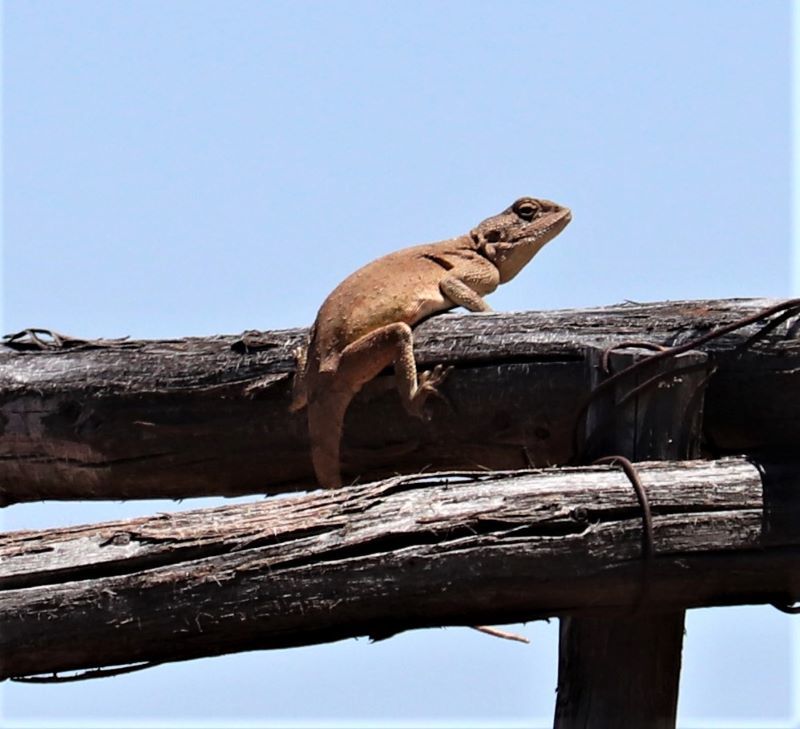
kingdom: Animalia
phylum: Chordata
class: Squamata
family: Agamidae
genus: Agama
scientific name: Agama aculeata
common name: Common ground agama
